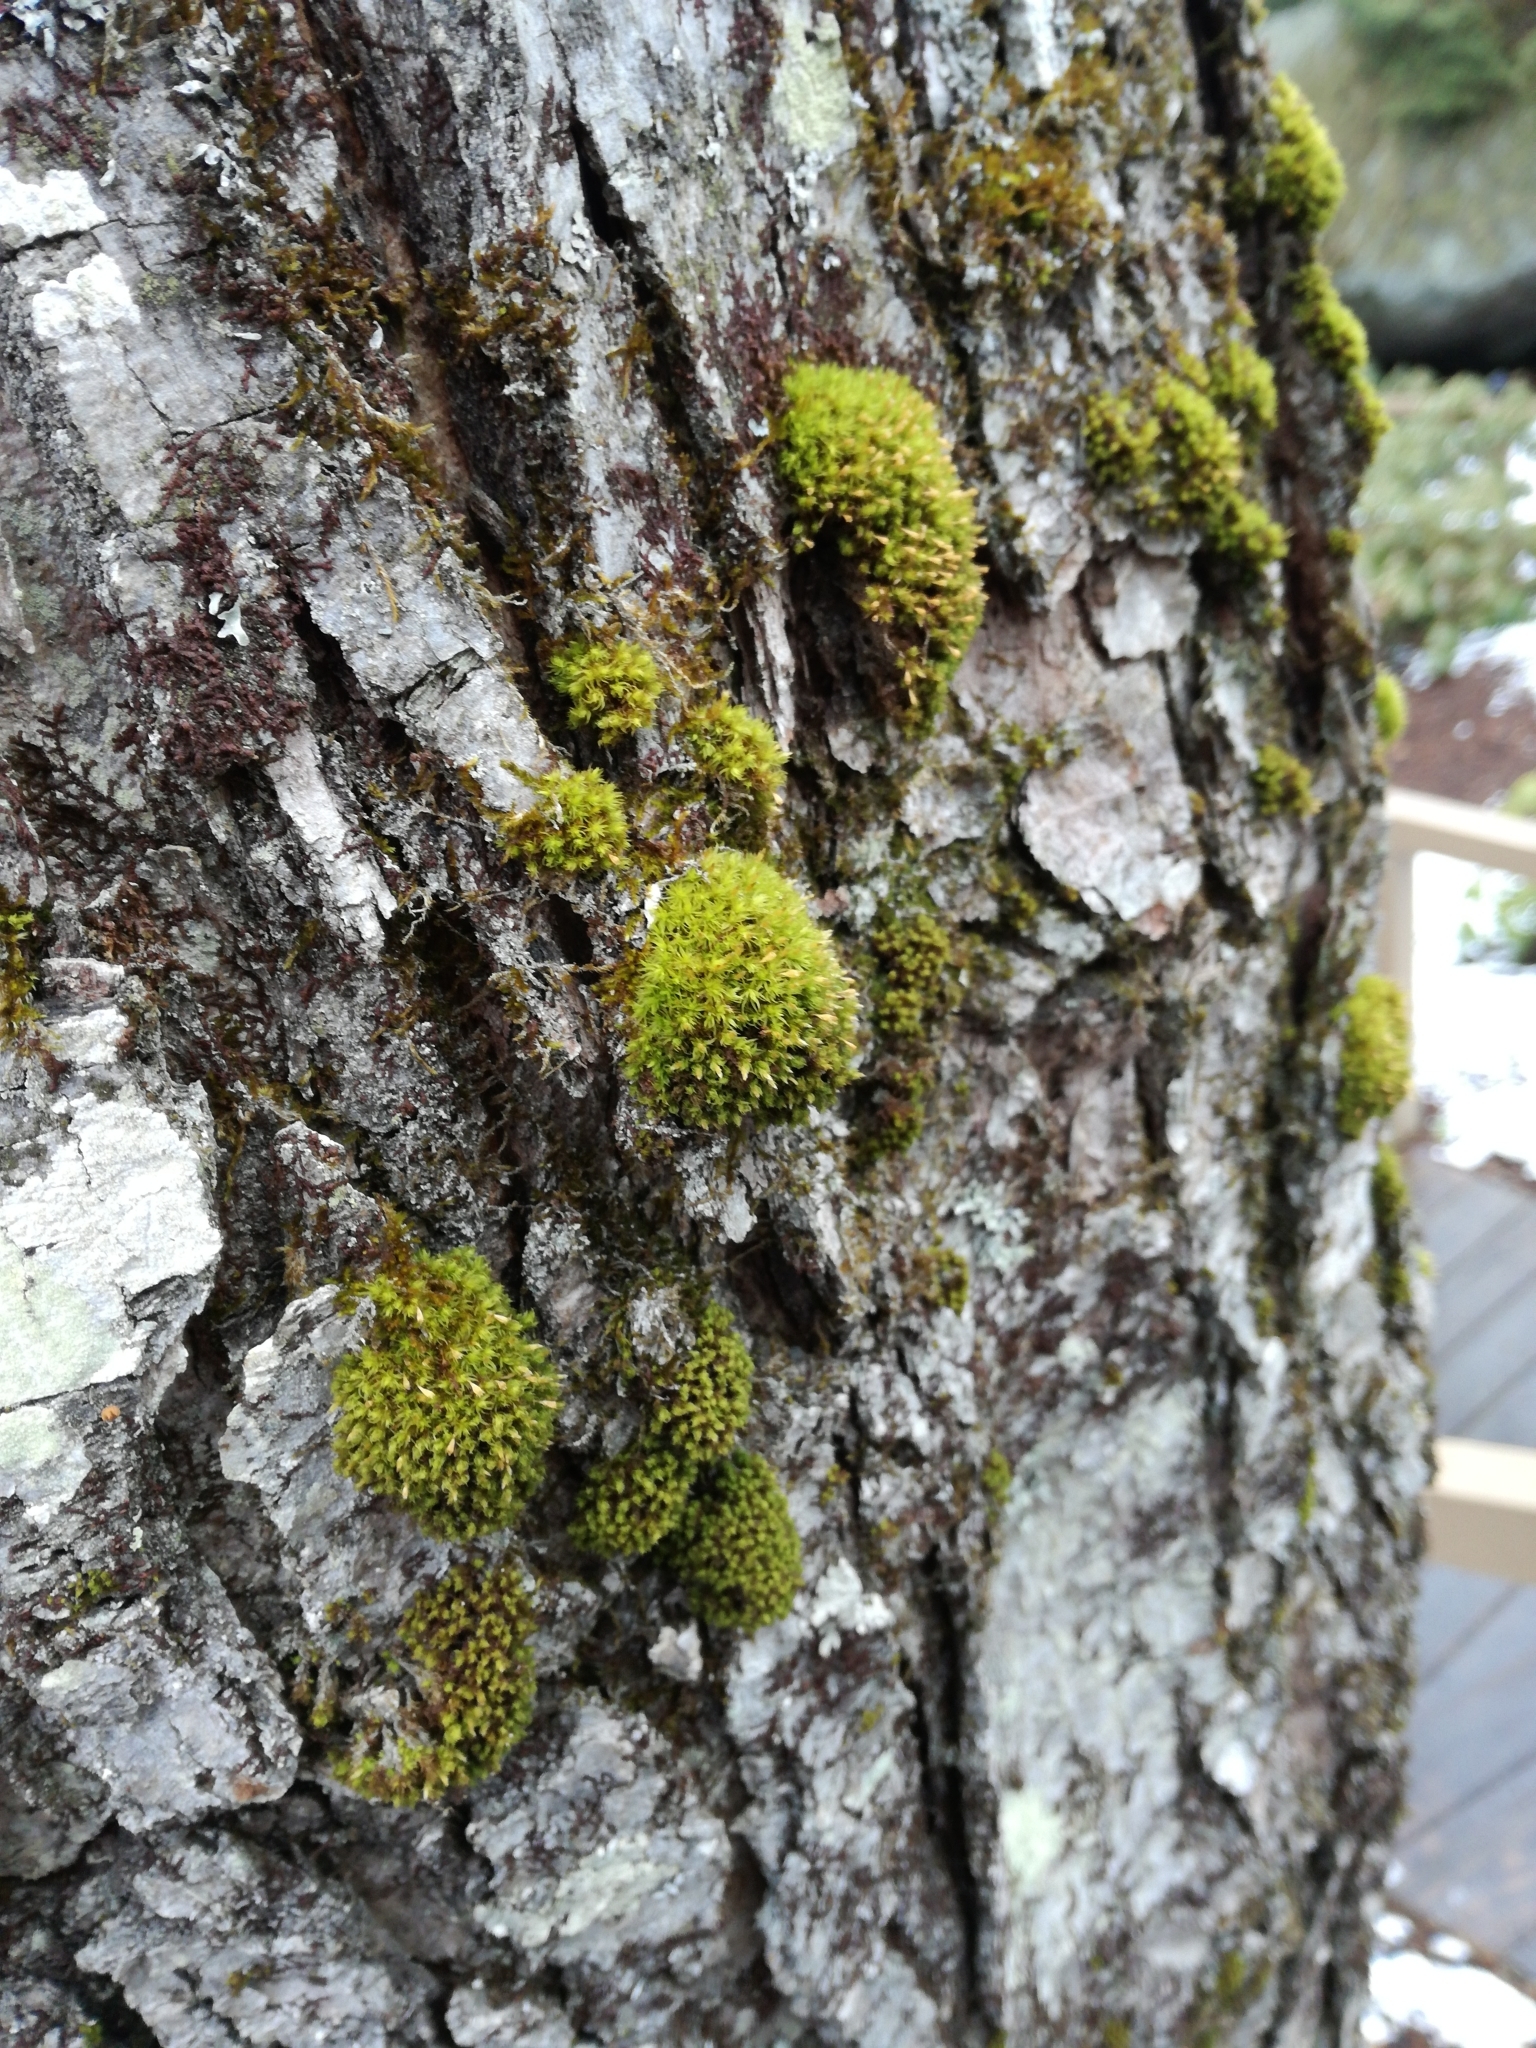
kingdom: Plantae
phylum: Bryophyta
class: Bryopsida
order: Orthotrichales
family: Orthotrichaceae
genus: Ulota
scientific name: Ulota crispa
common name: Crisped pincushion moss
